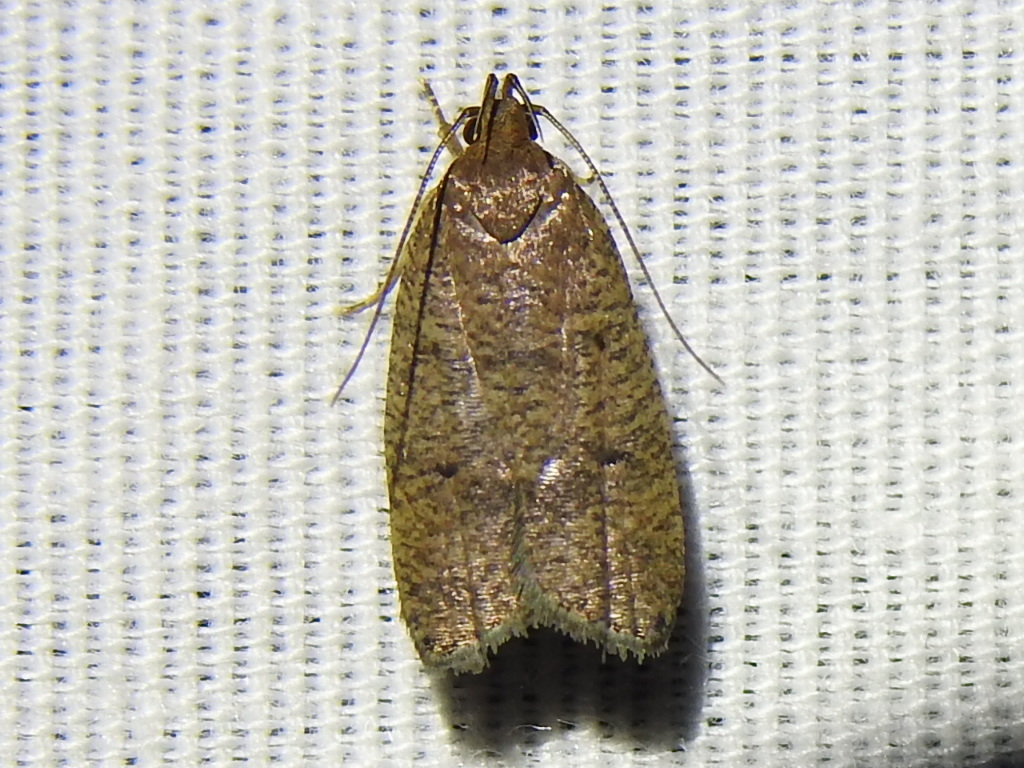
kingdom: Animalia
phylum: Arthropoda
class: Insecta
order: Lepidoptera
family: Depressariidae
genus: Psilocorsis
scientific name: Psilocorsis reflexella
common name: Dotted leaftier moth
